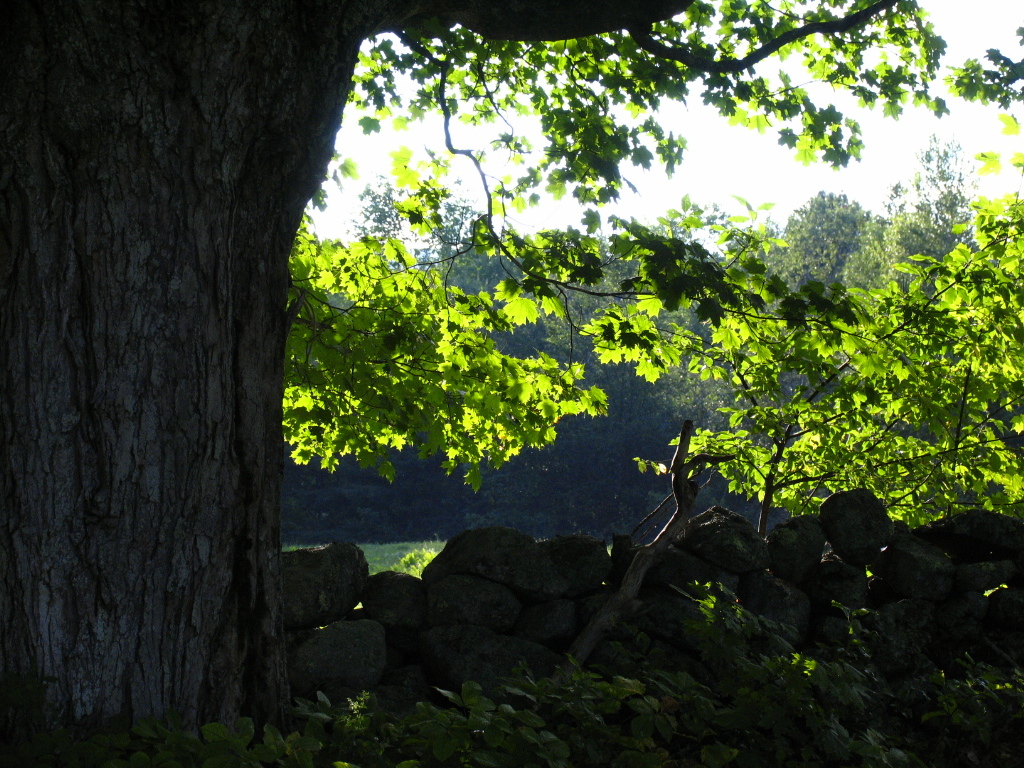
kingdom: Plantae
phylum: Tracheophyta
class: Magnoliopsida
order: Sapindales
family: Sapindaceae
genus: Acer
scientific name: Acer saccharum
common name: Sugar maple
